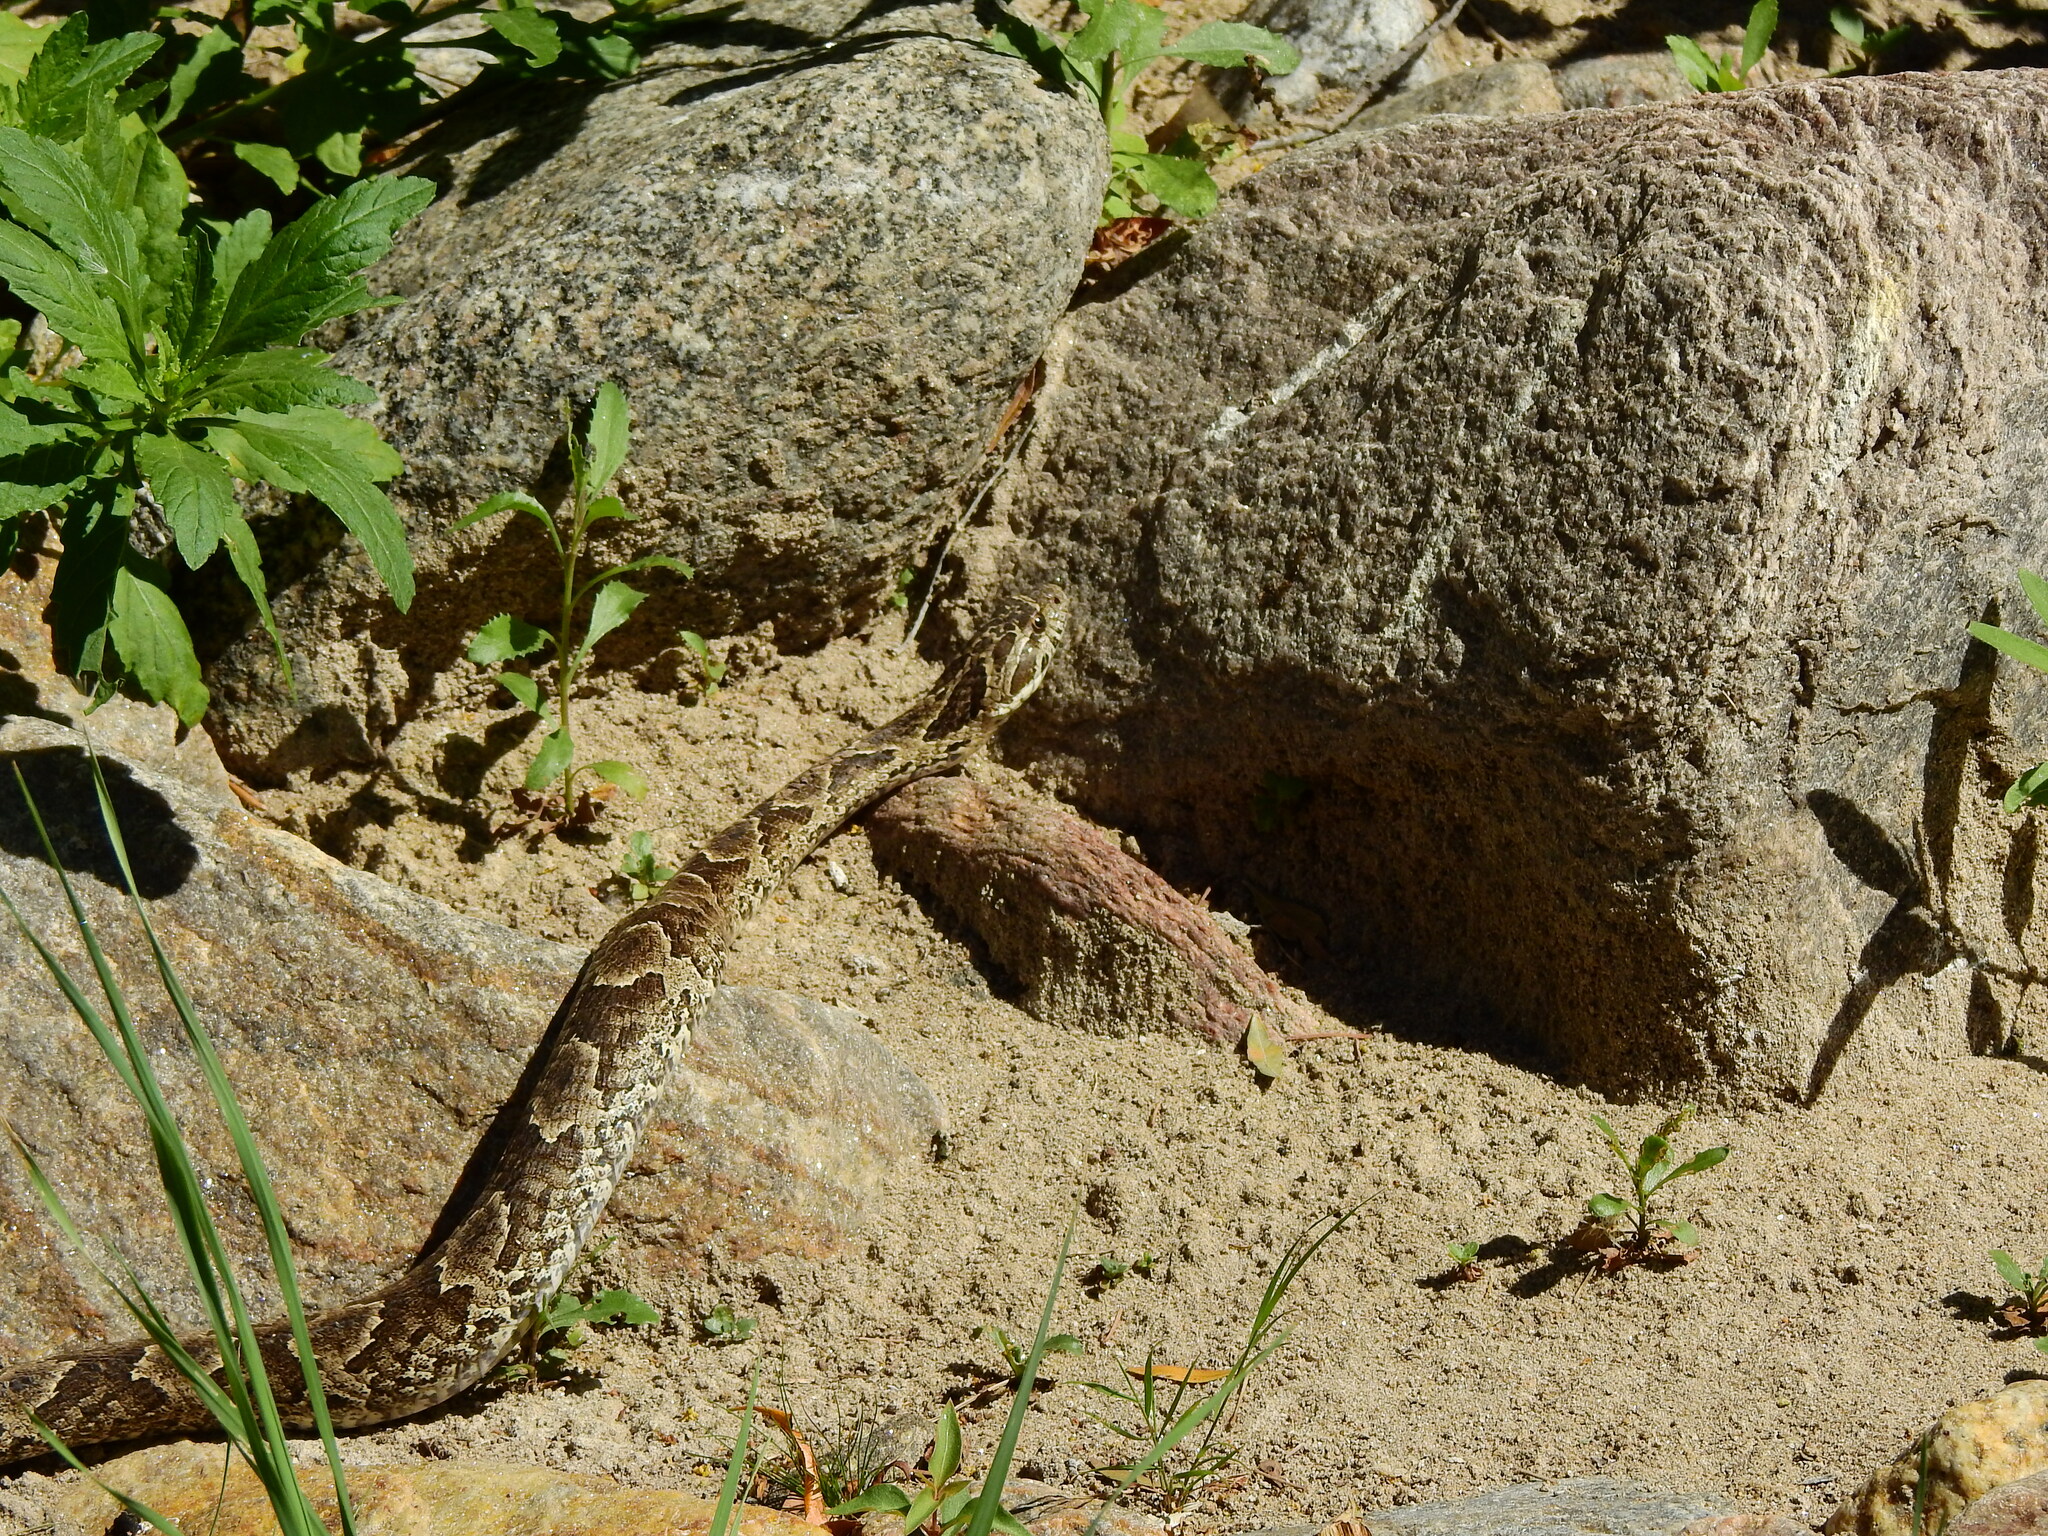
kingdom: Animalia
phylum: Chordata
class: Squamata
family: Colubridae
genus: Xenodon
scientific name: Xenodon merremii
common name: Wagler's snake
